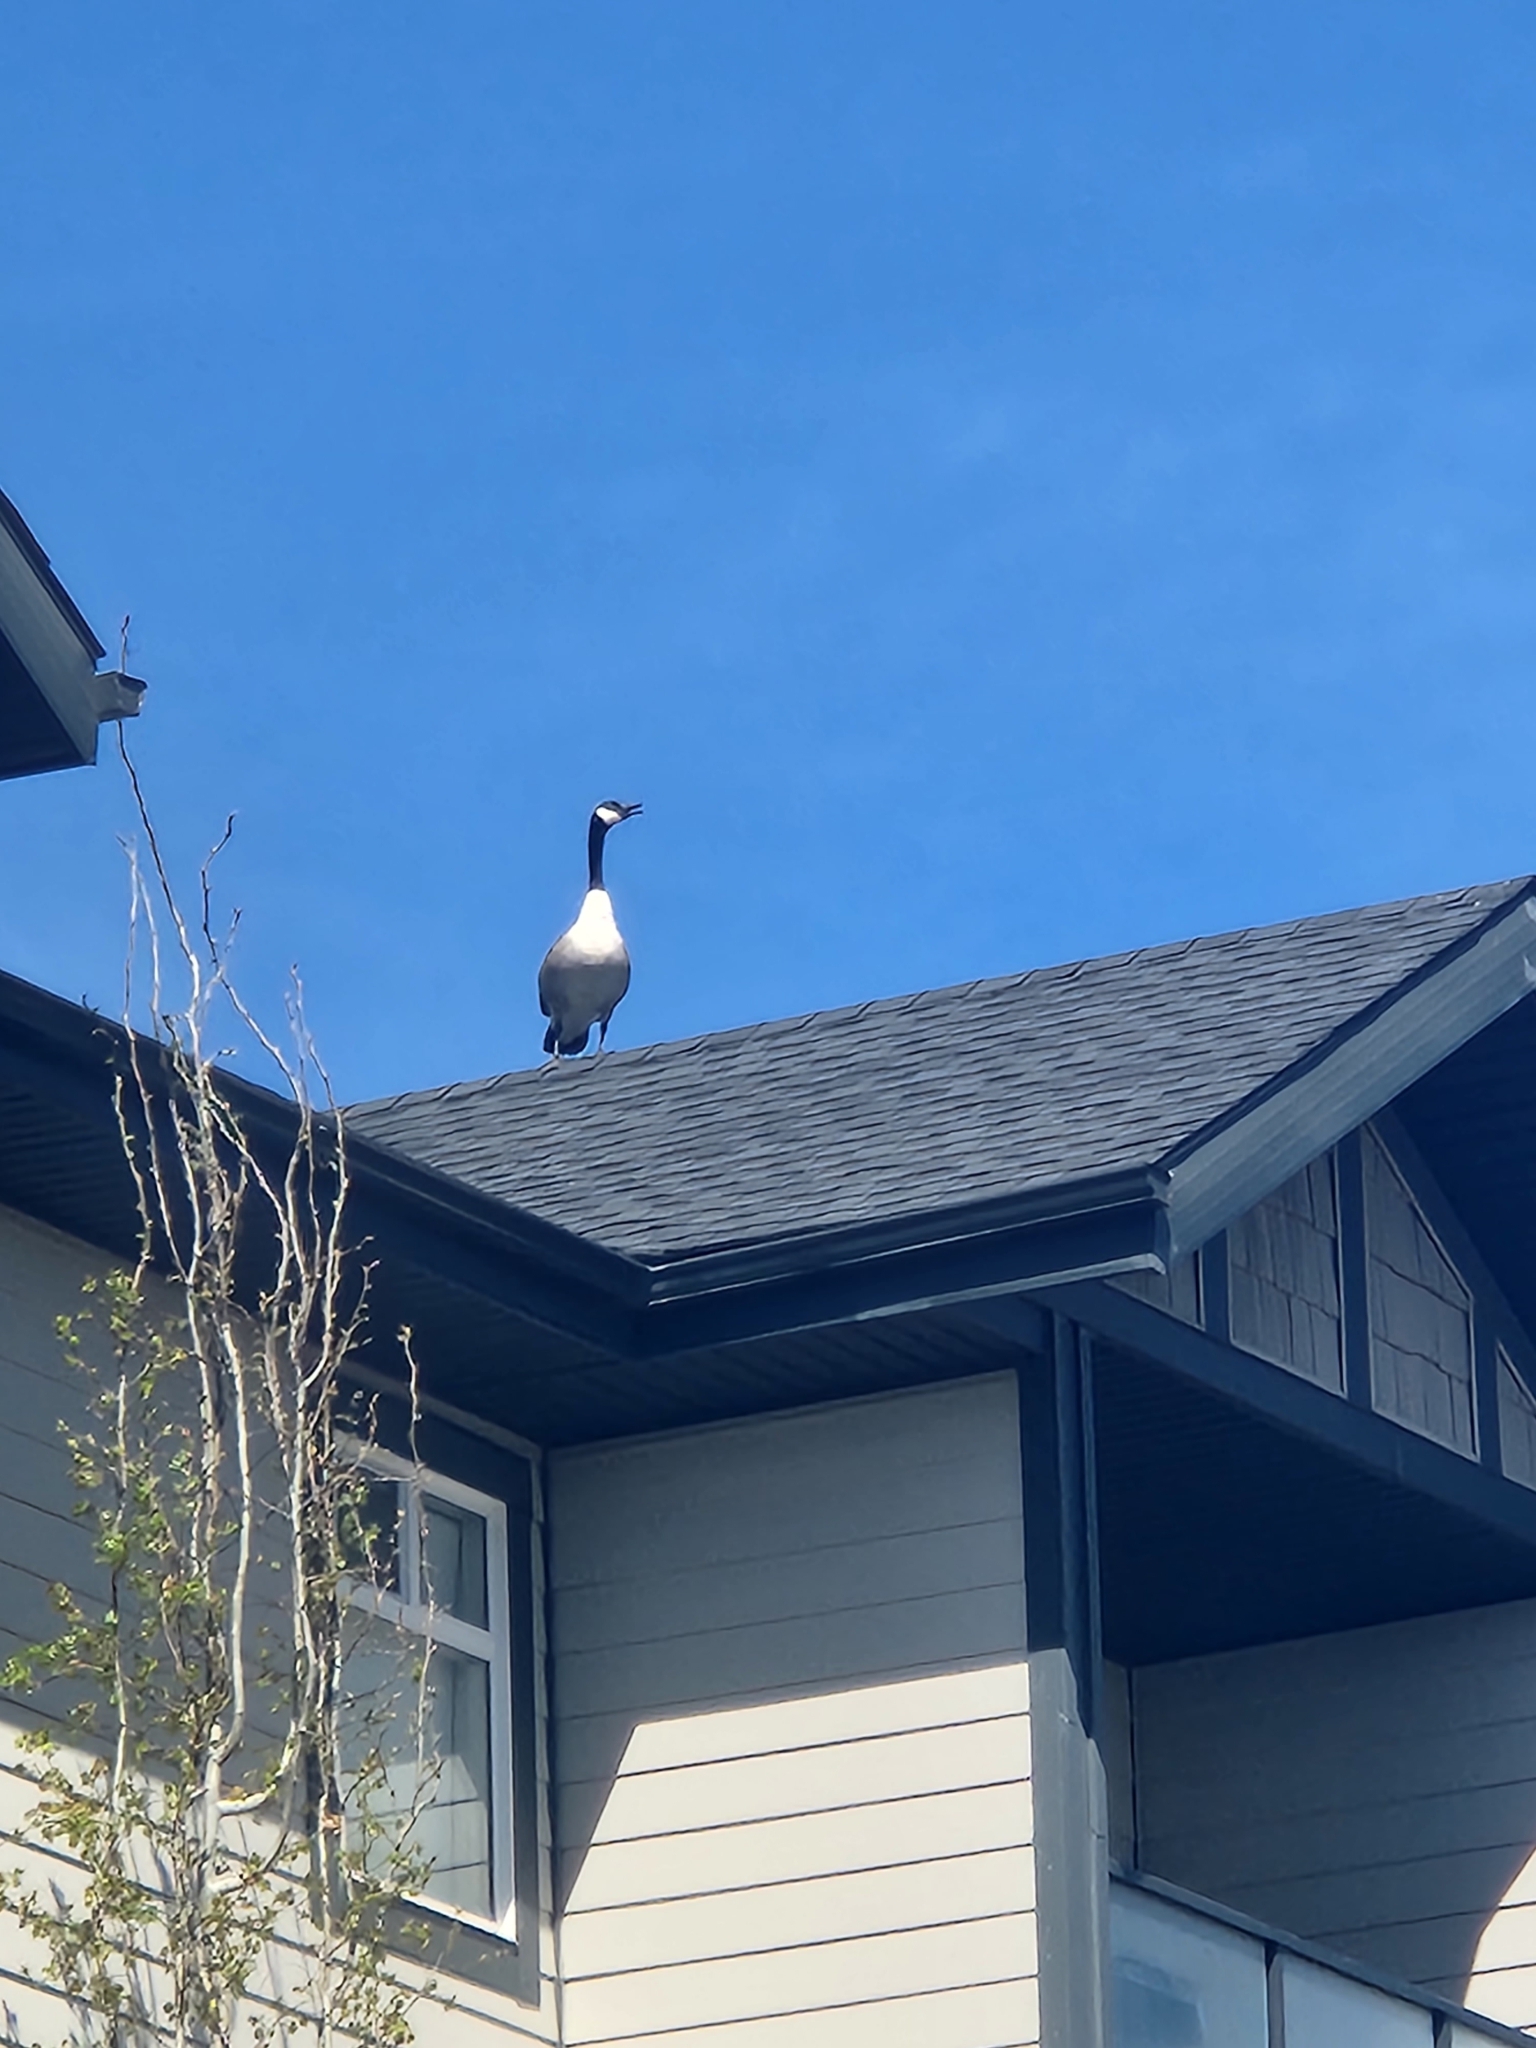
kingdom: Animalia
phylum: Chordata
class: Aves
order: Anseriformes
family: Anatidae
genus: Branta
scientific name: Branta canadensis
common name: Canada goose
